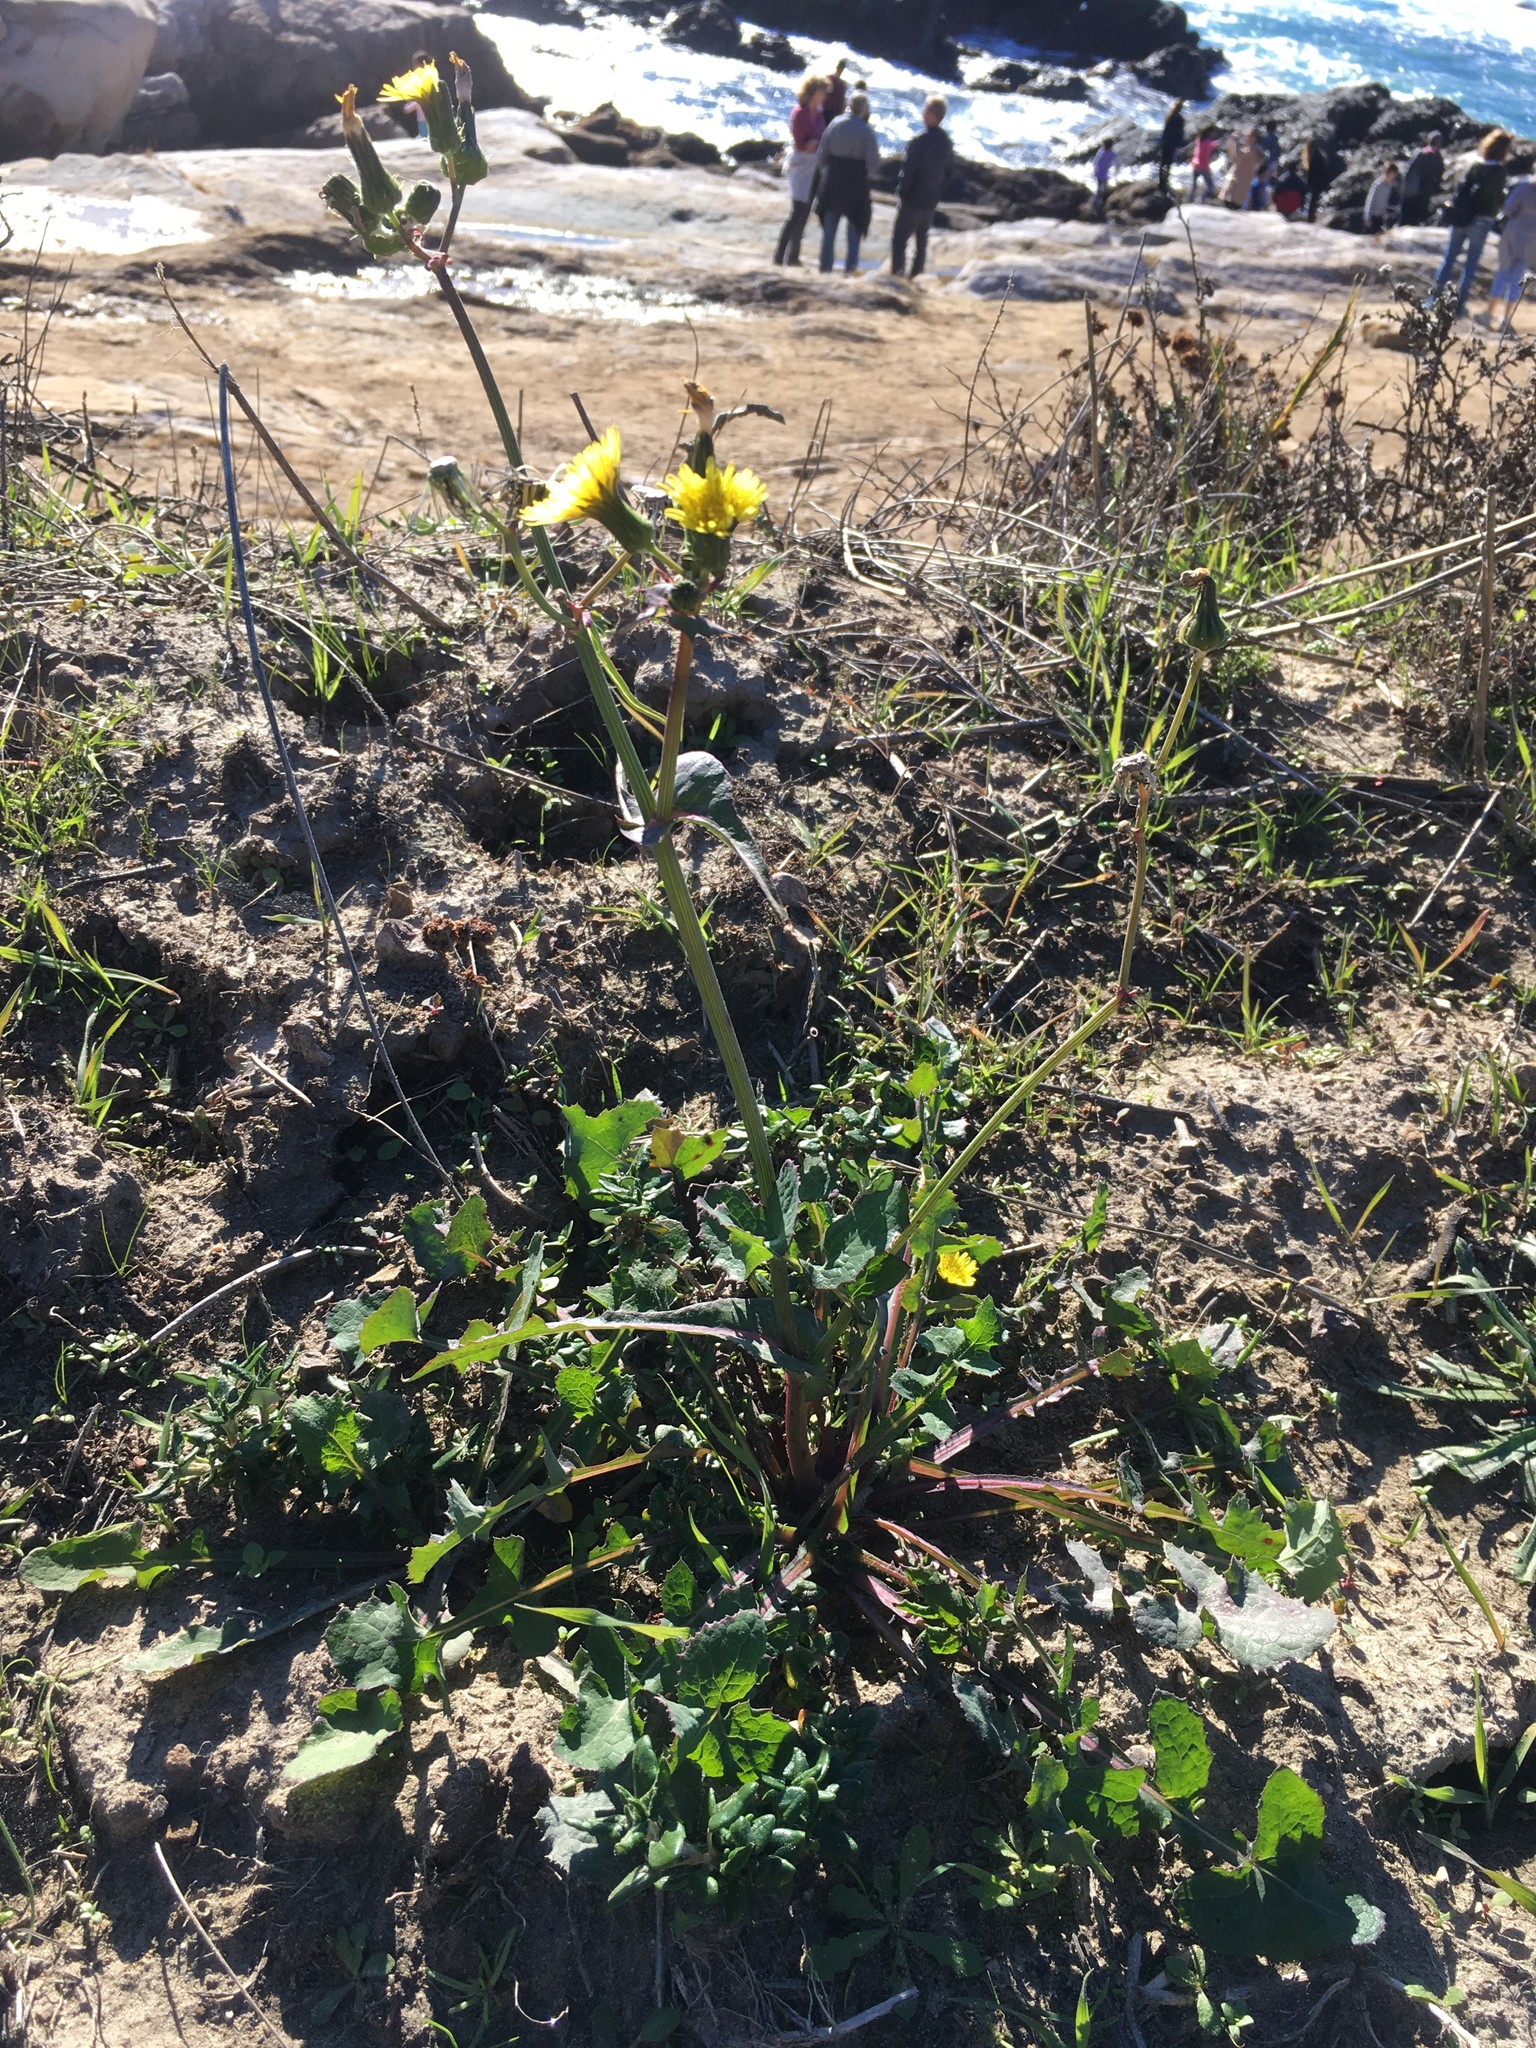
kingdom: Plantae
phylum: Tracheophyta
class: Magnoliopsida
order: Asterales
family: Asteraceae
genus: Sonchus
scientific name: Sonchus oleraceus
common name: Common sowthistle
